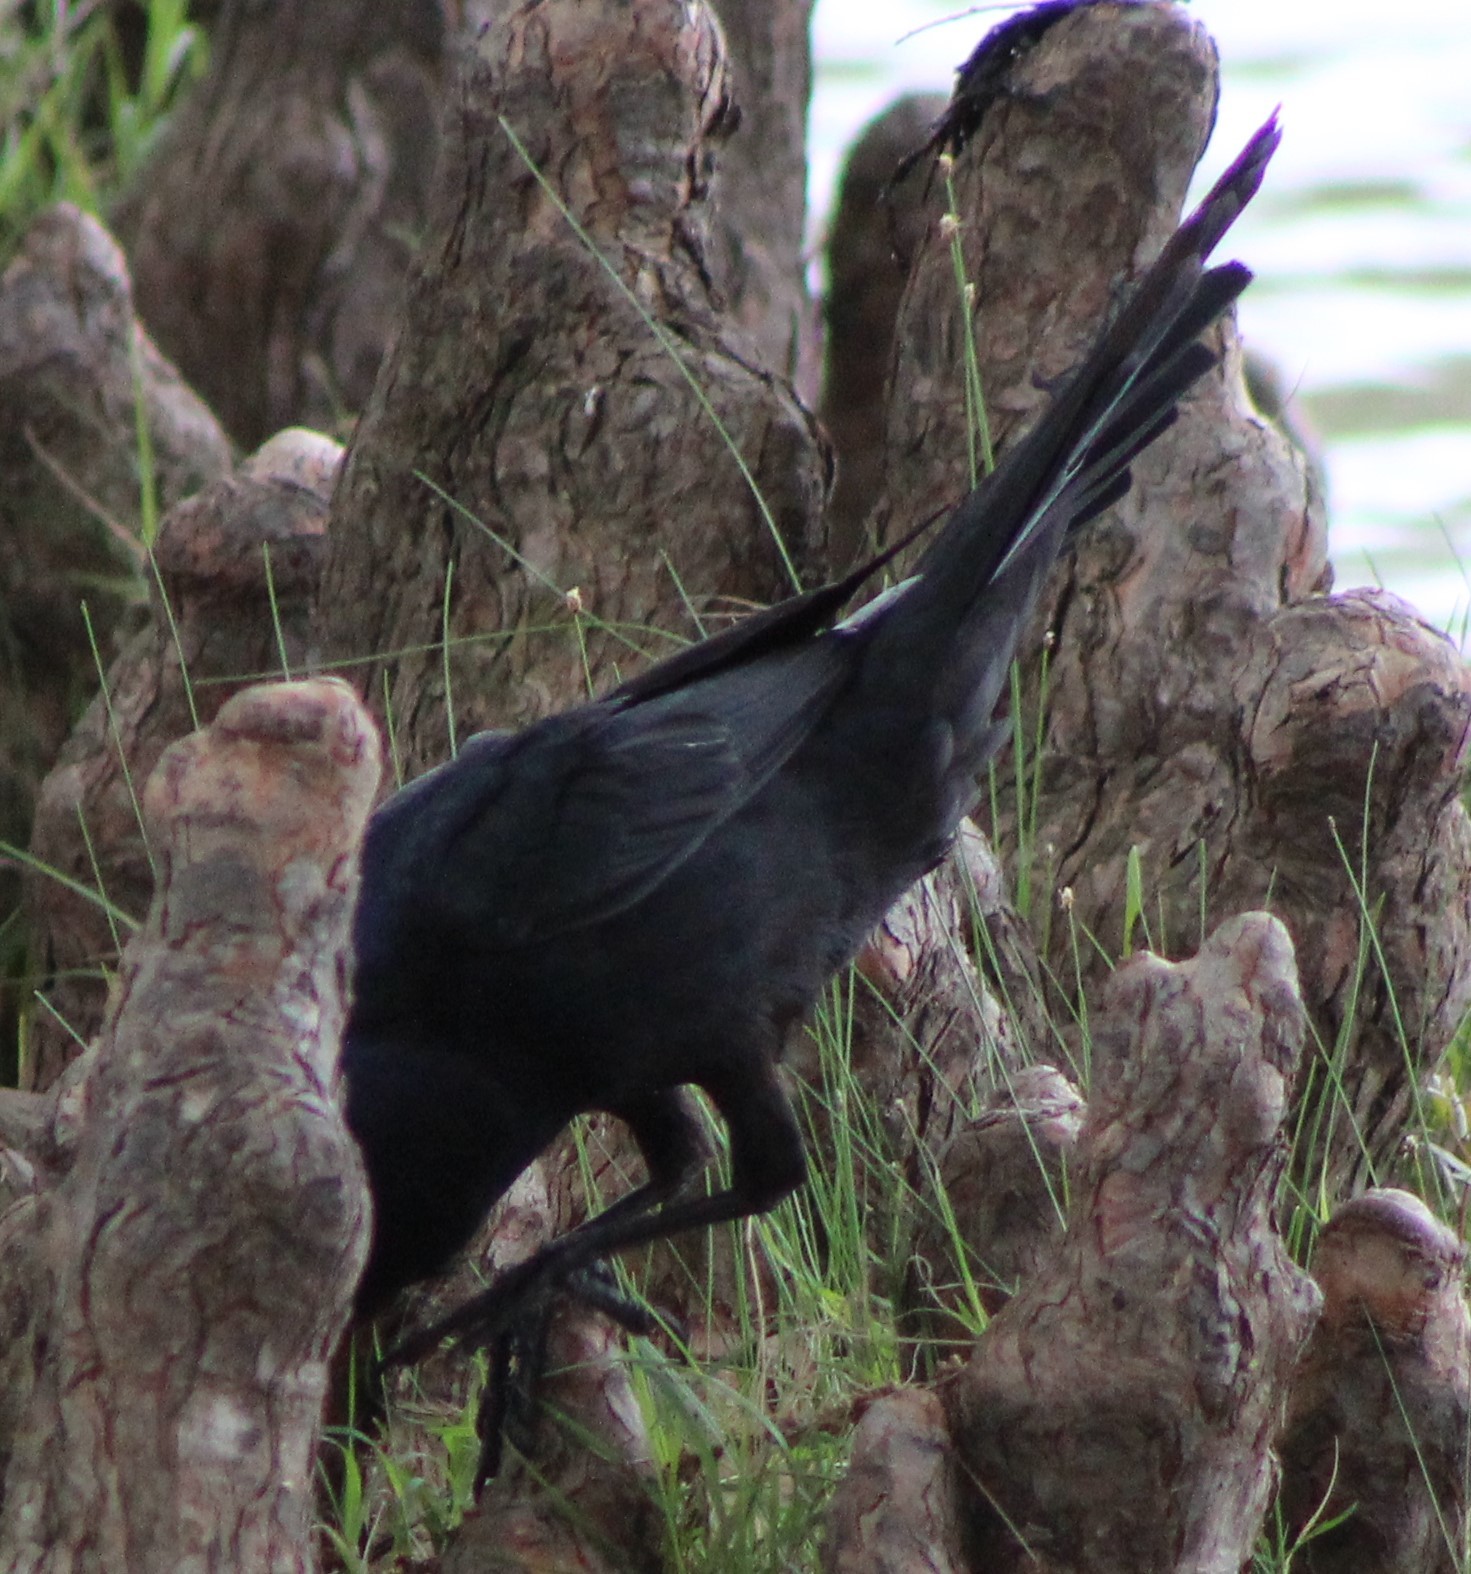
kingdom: Animalia
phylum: Chordata
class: Aves
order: Passeriformes
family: Icteridae
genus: Quiscalus
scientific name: Quiscalus mexicanus
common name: Great-tailed grackle
